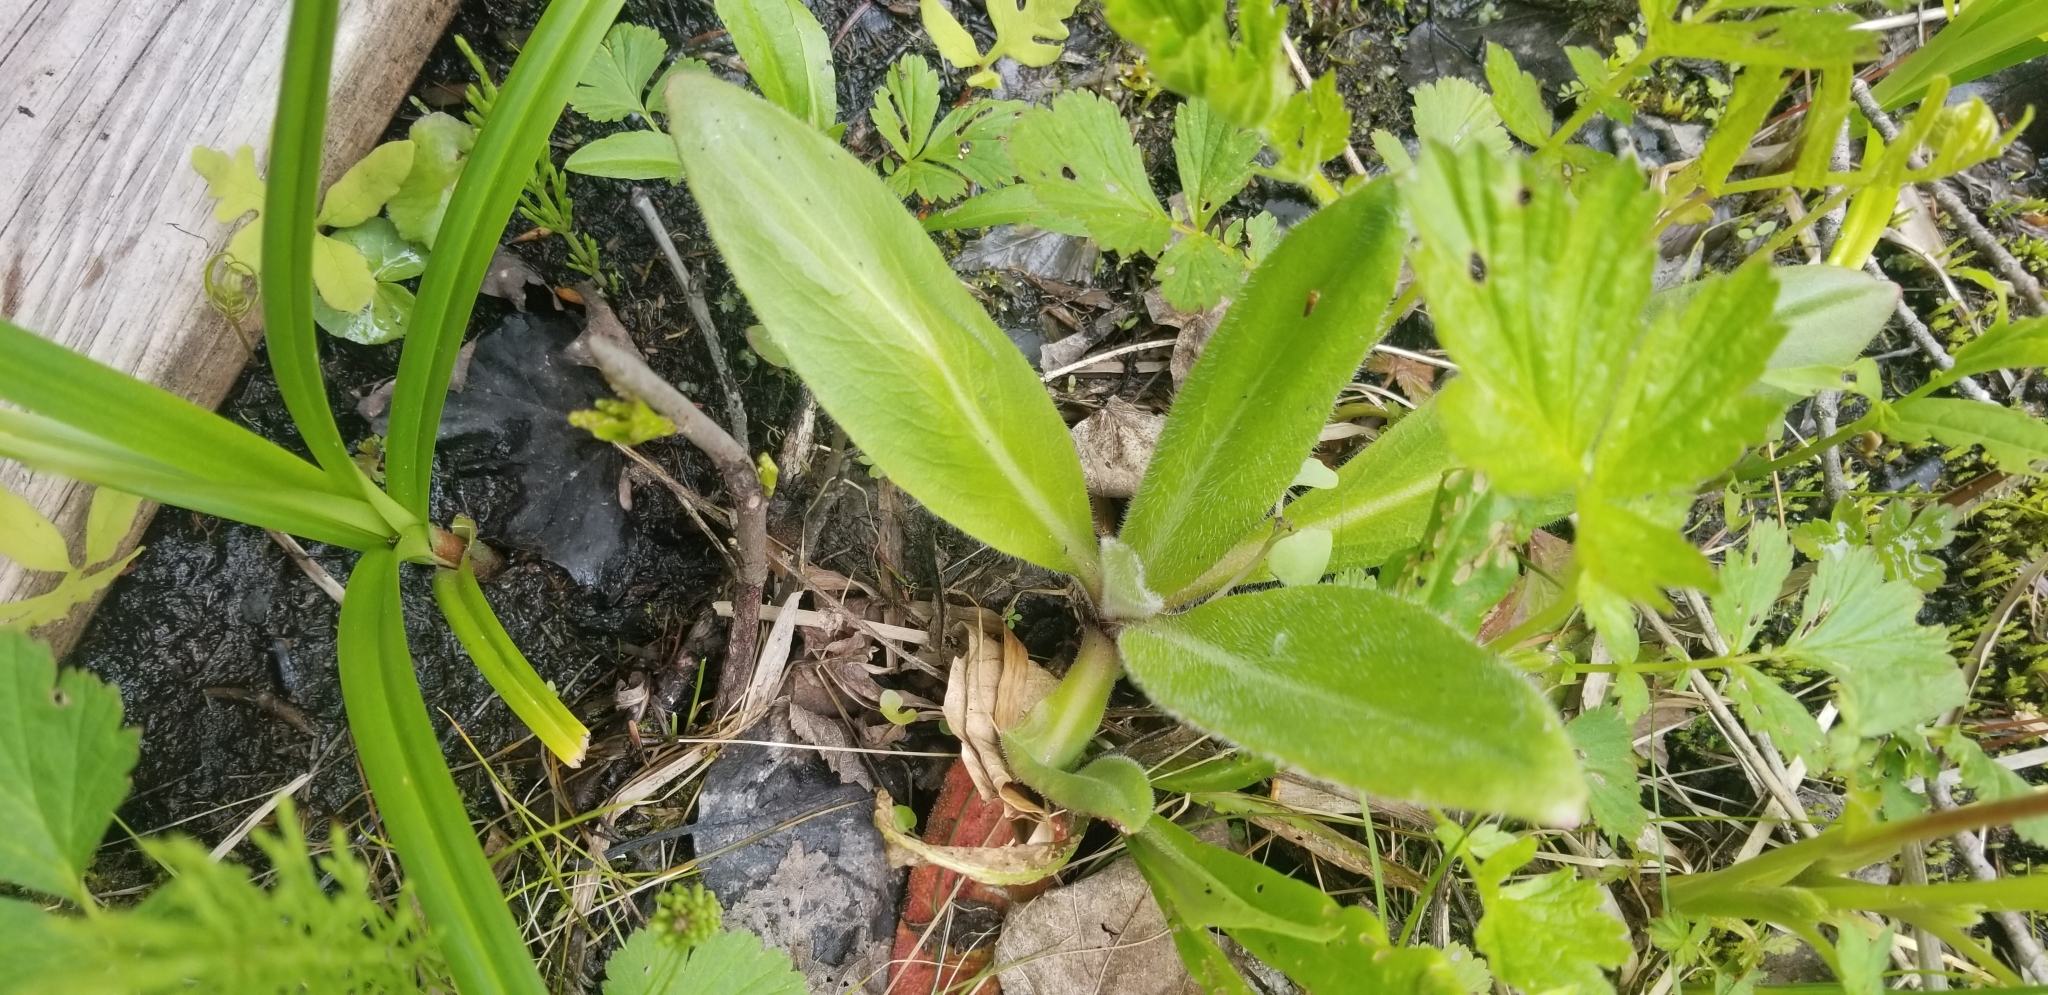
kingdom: Plantae
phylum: Tracheophyta
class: Magnoliopsida
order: Saxifragales
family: Saxifragaceae
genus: Micranthes
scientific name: Micranthes pensylvanica
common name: Marsh saxifrage
